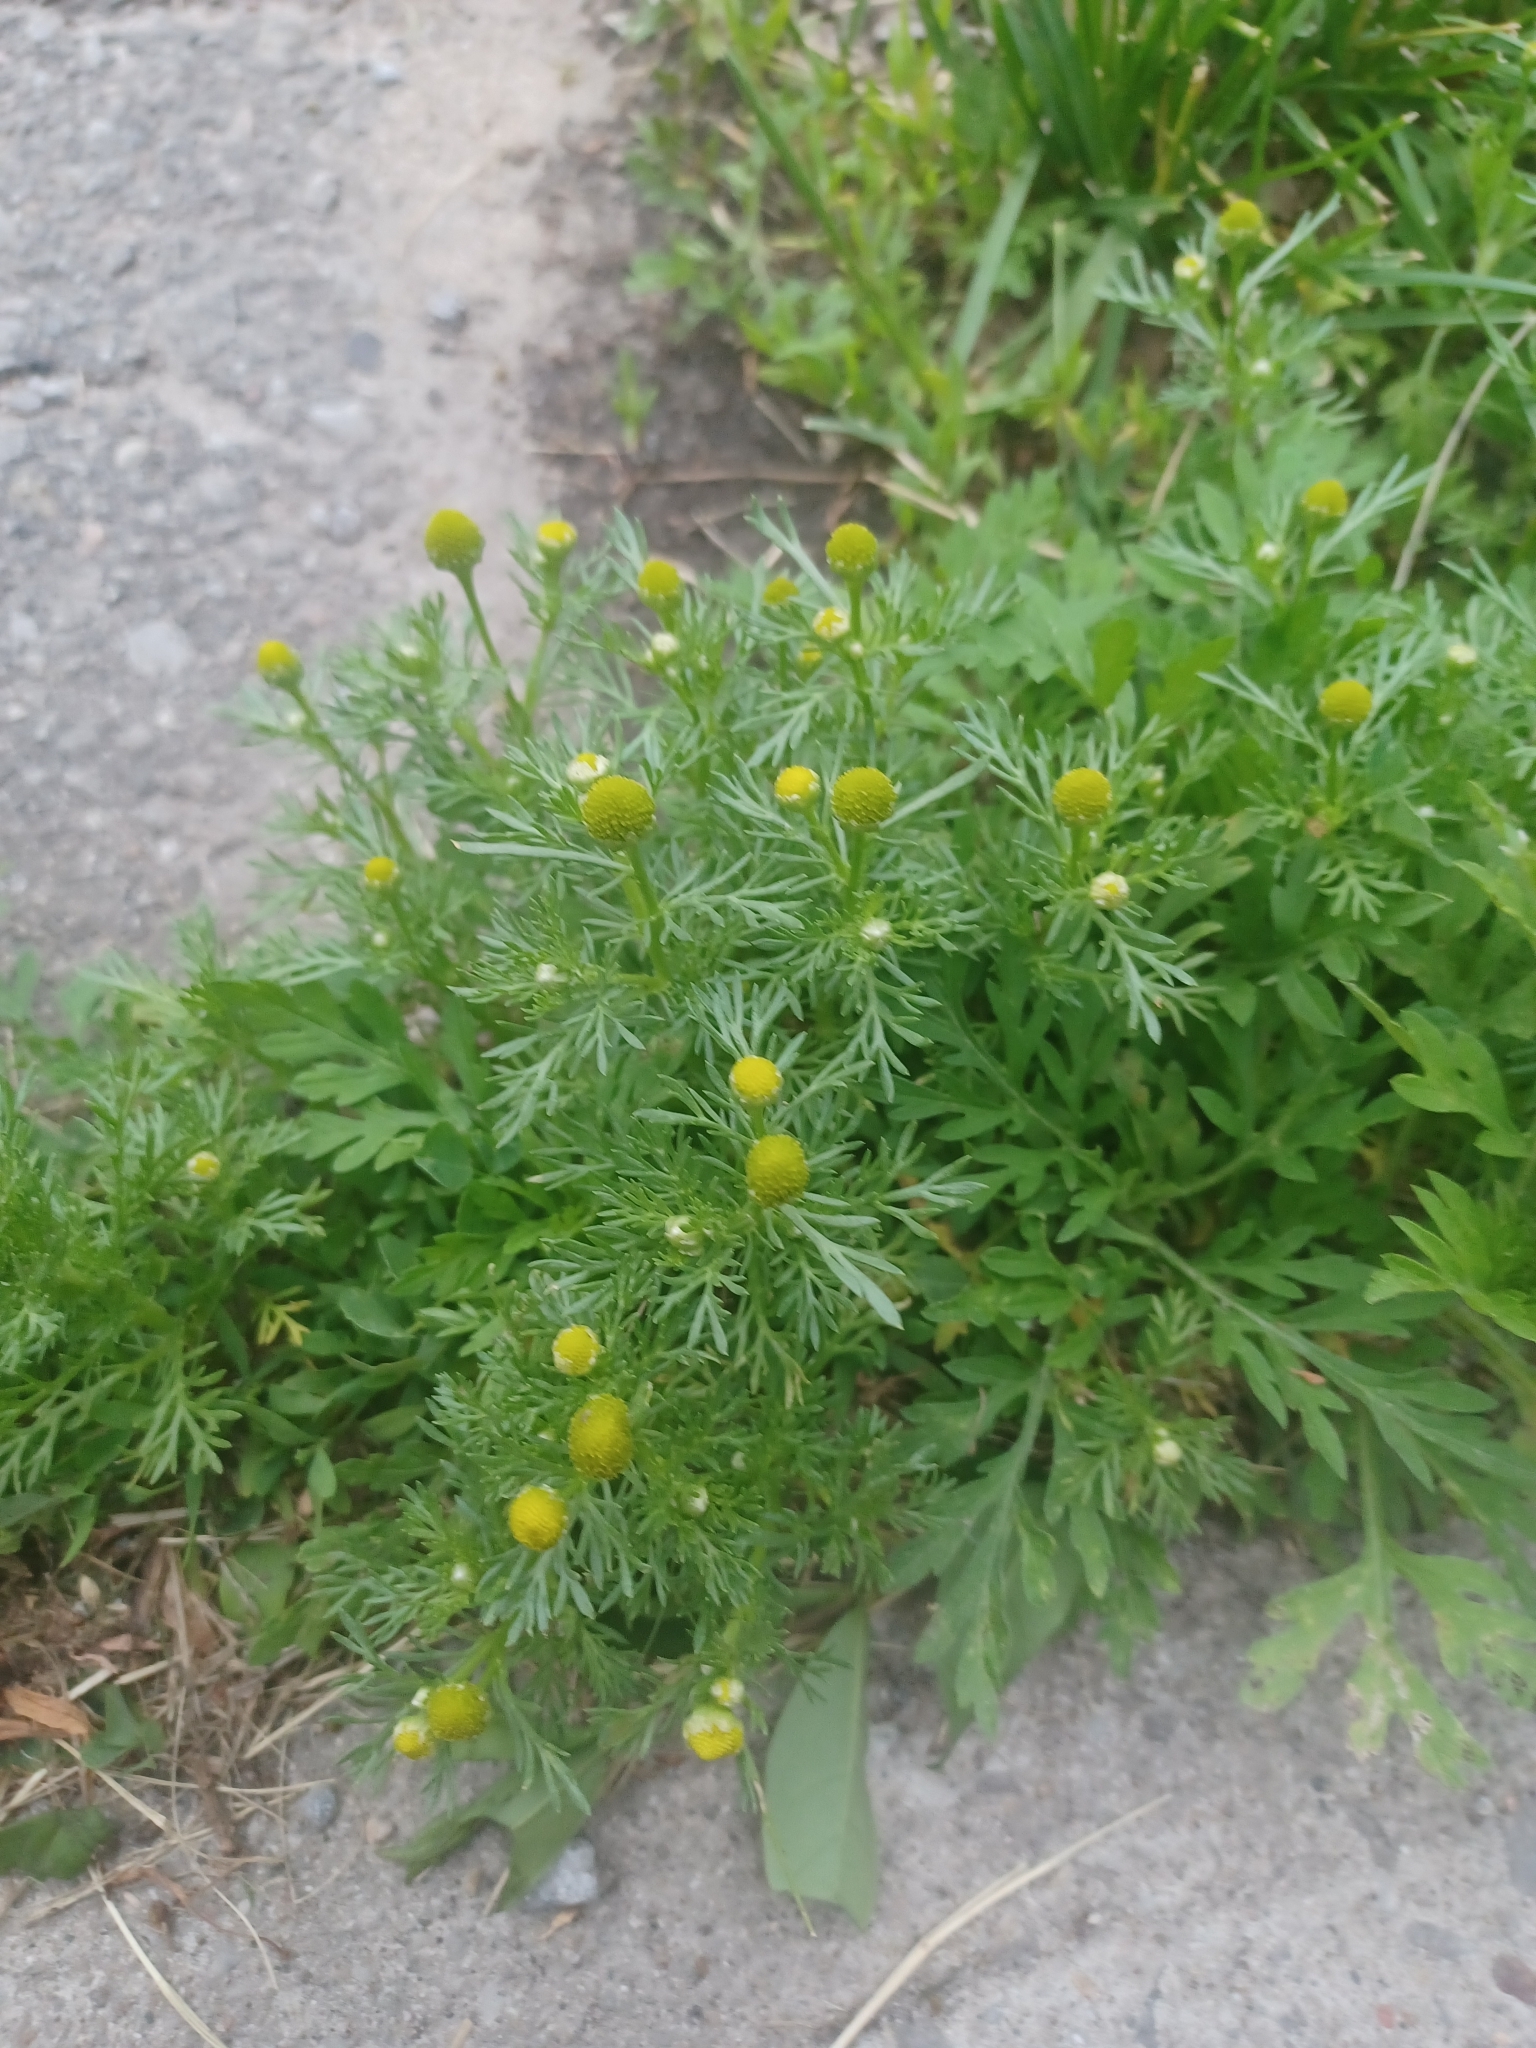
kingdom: Plantae
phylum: Tracheophyta
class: Magnoliopsida
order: Asterales
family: Asteraceae
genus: Matricaria
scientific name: Matricaria discoidea
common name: Disc mayweed
